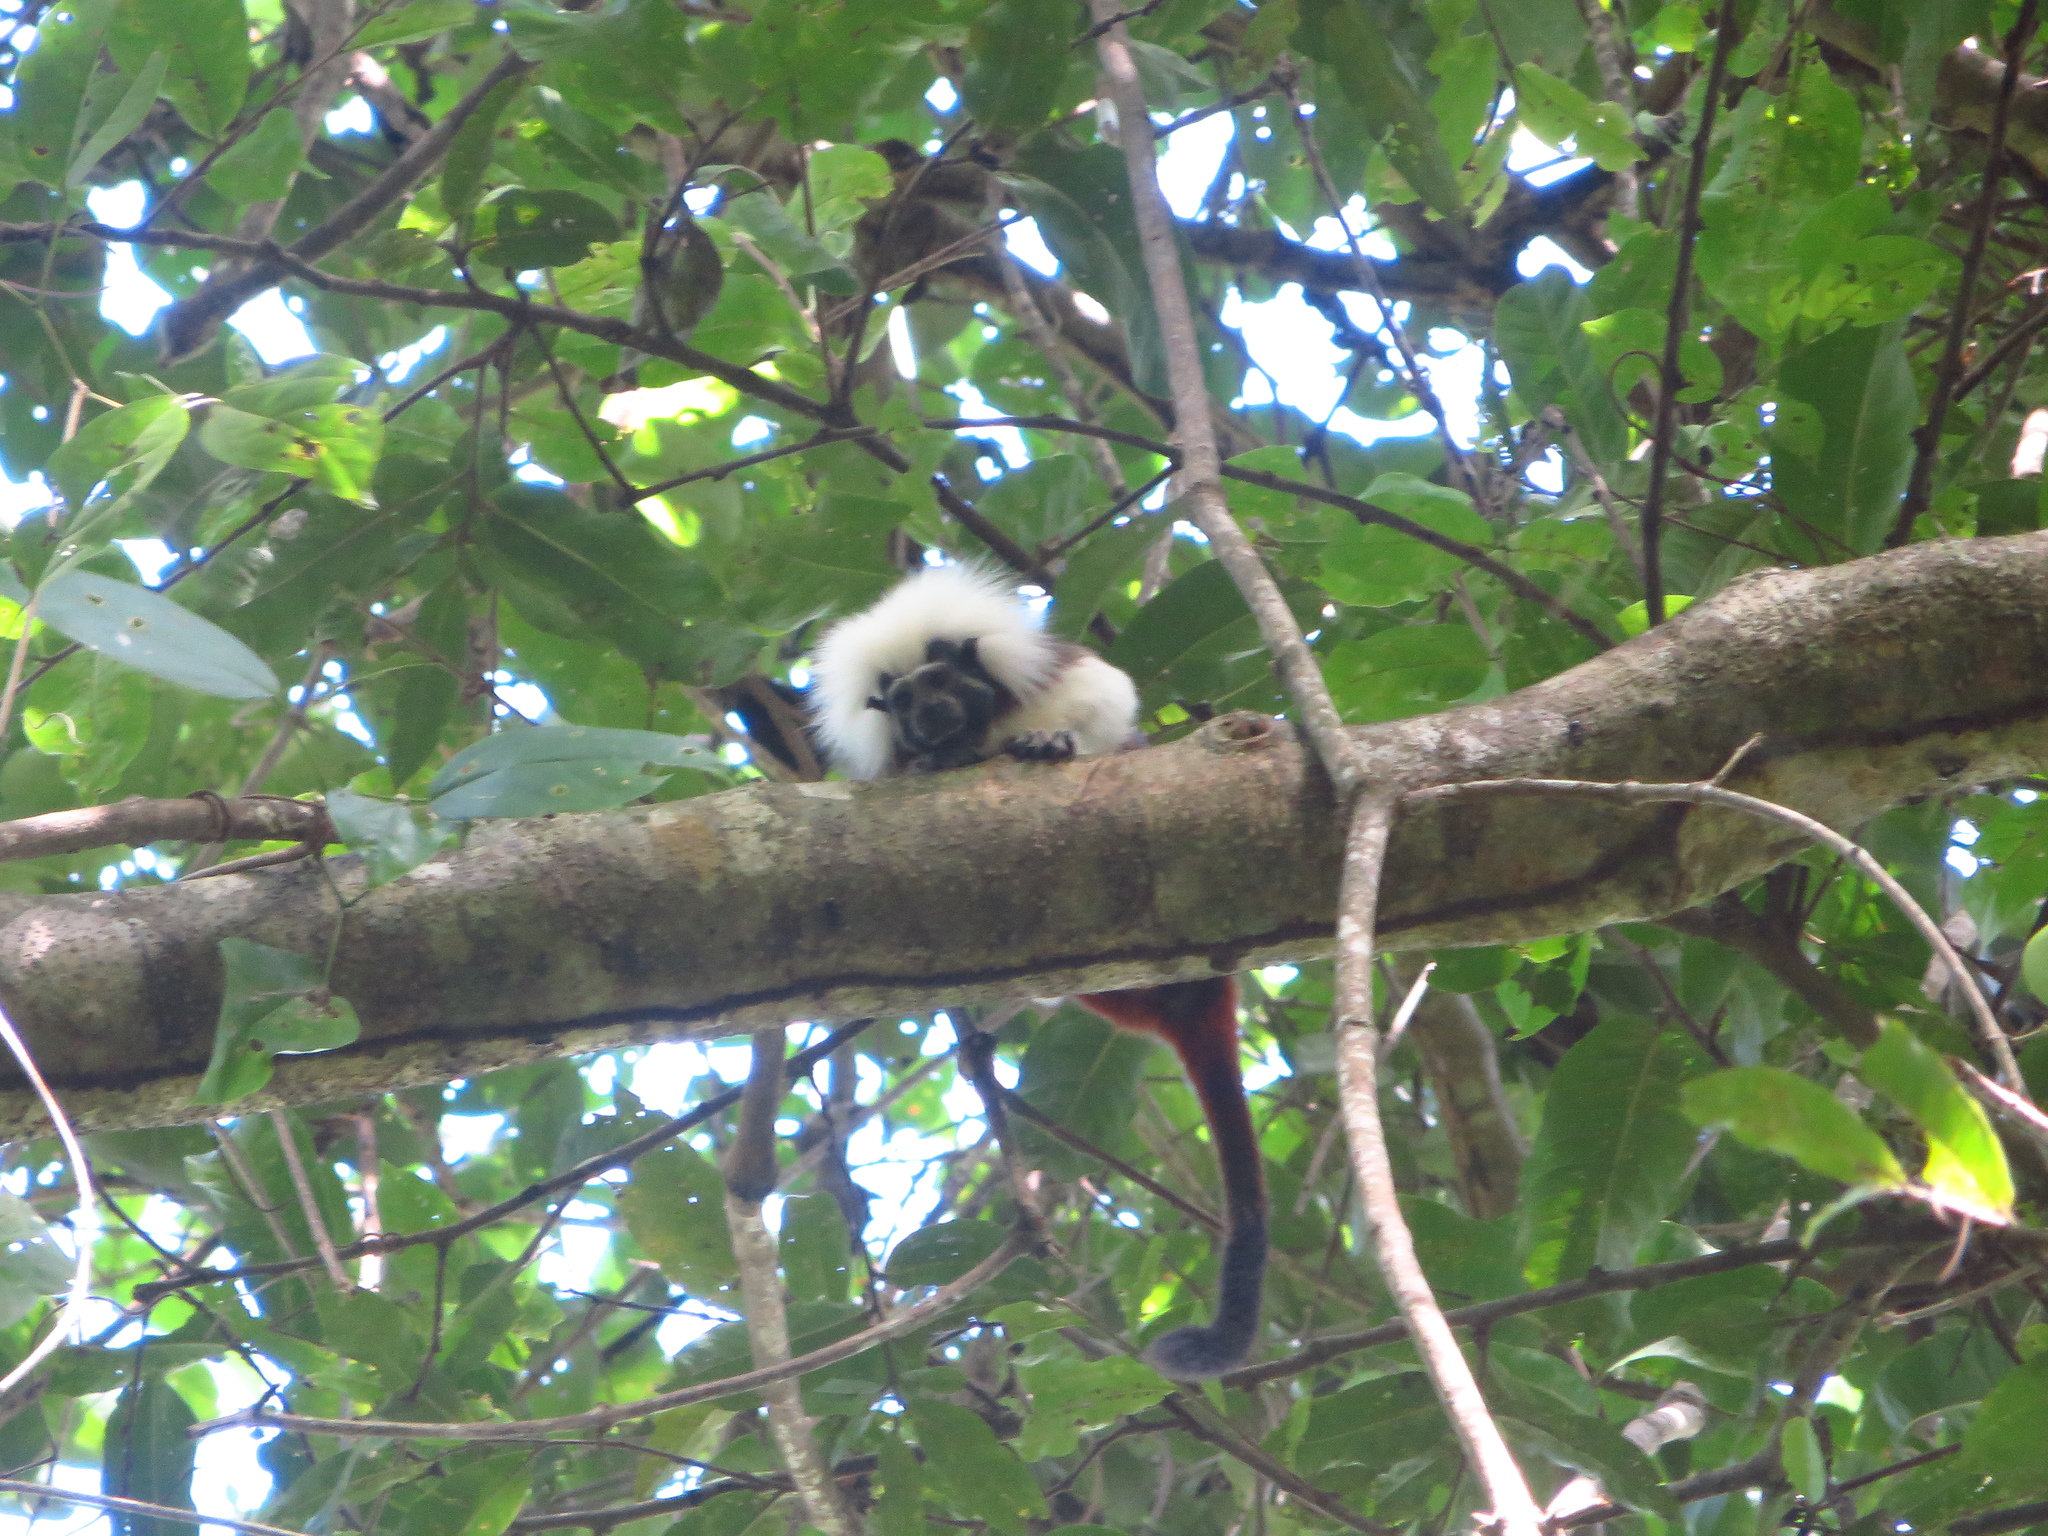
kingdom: Animalia
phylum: Chordata
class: Mammalia
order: Primates
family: Callitrichidae
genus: Saguinus
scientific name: Saguinus oedipus
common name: Cottontop tamarin
